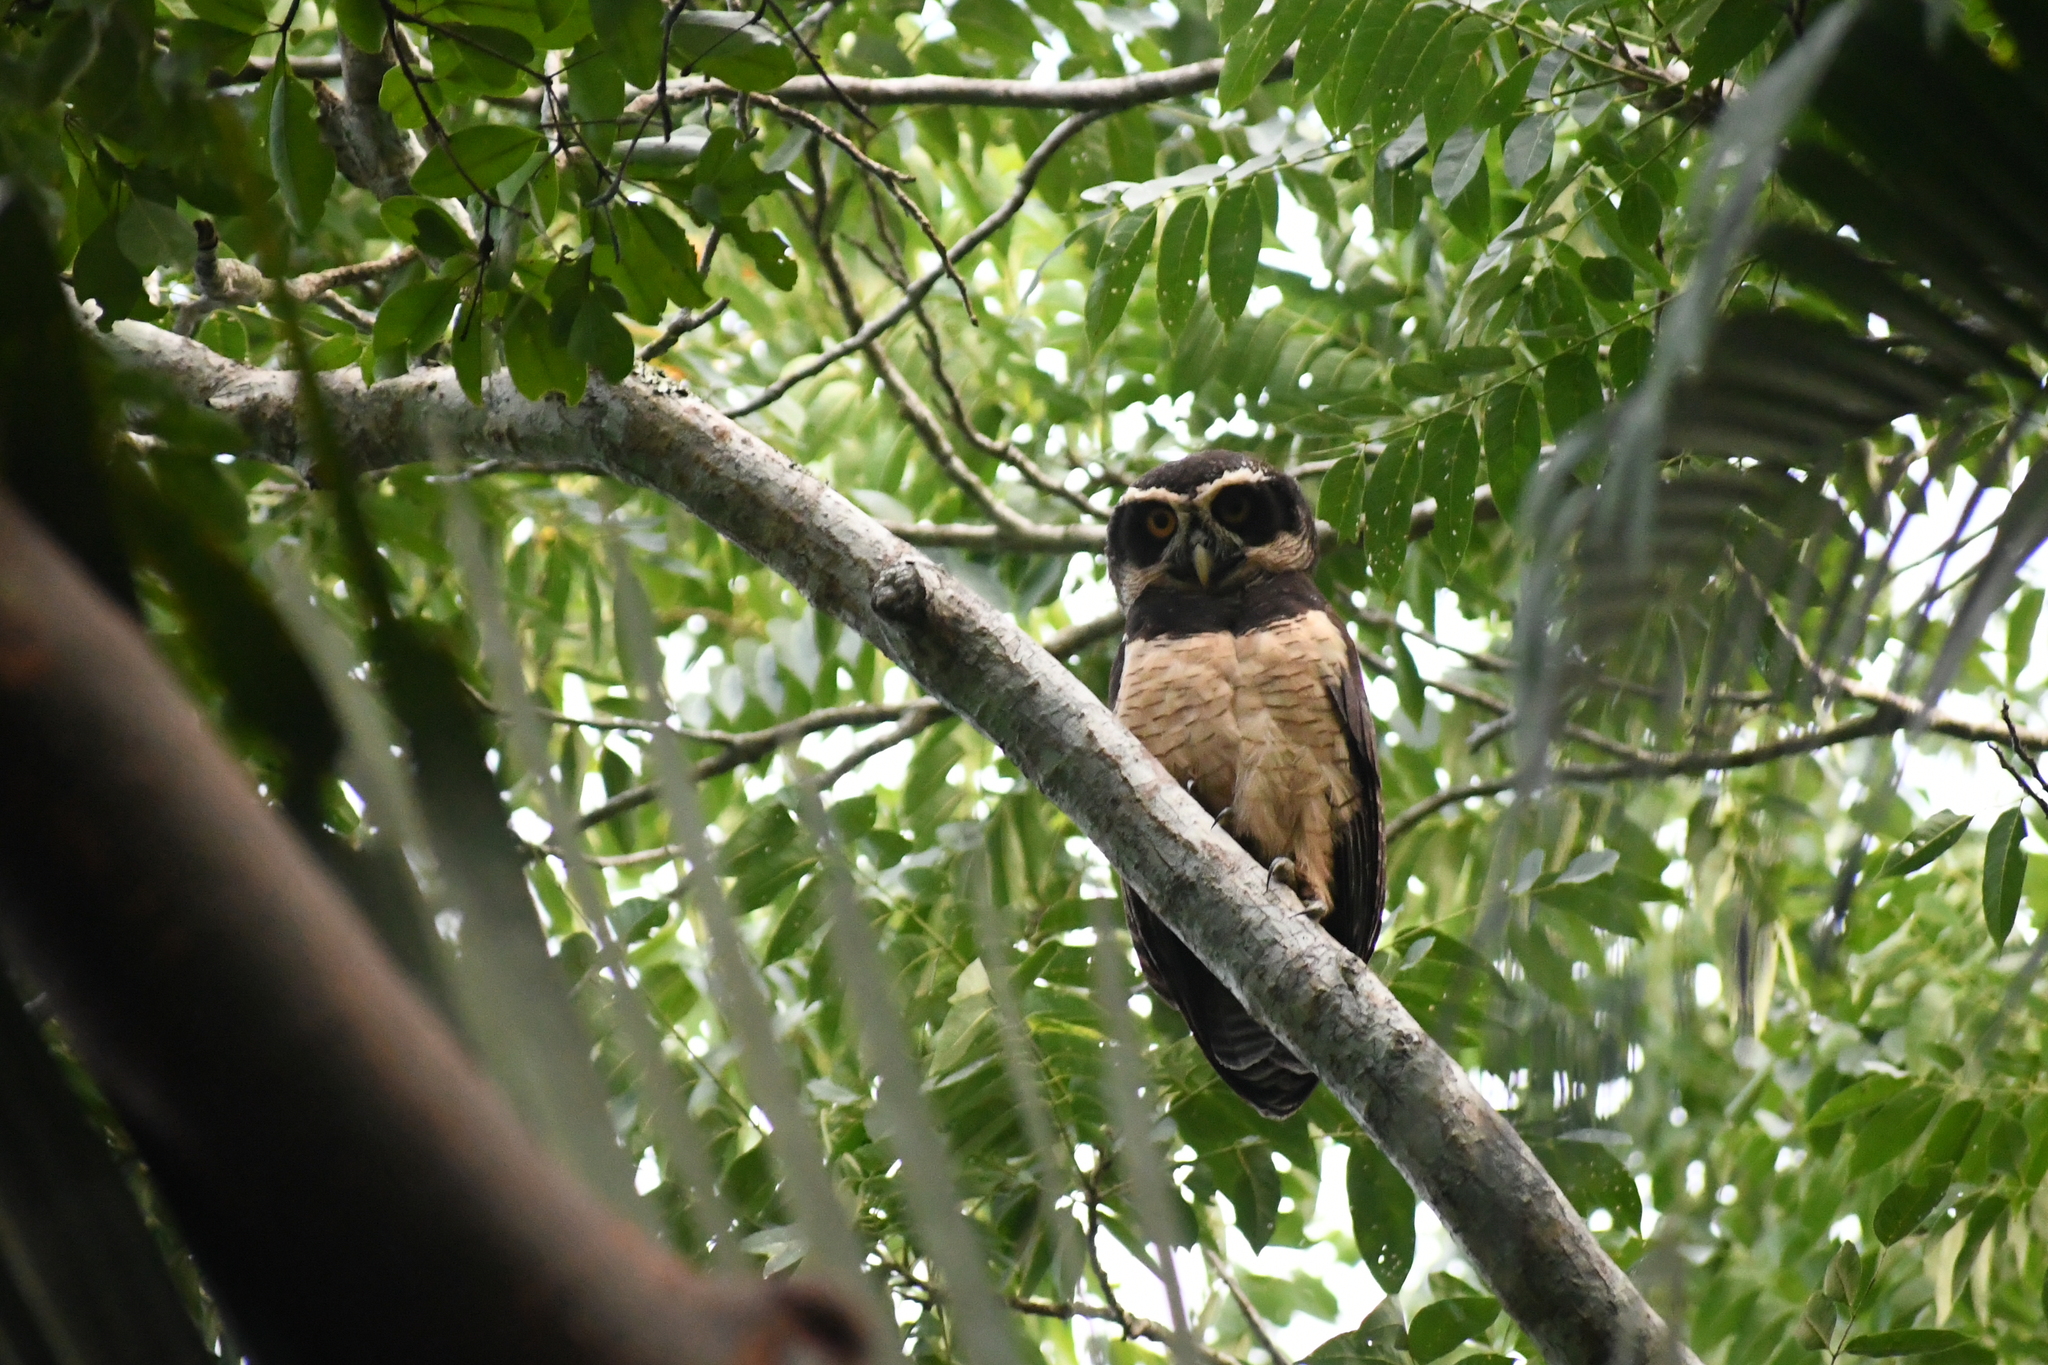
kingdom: Animalia
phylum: Chordata
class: Aves
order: Strigiformes
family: Strigidae
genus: Pulsatrix
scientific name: Pulsatrix perspicillata
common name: Spectacled owl
